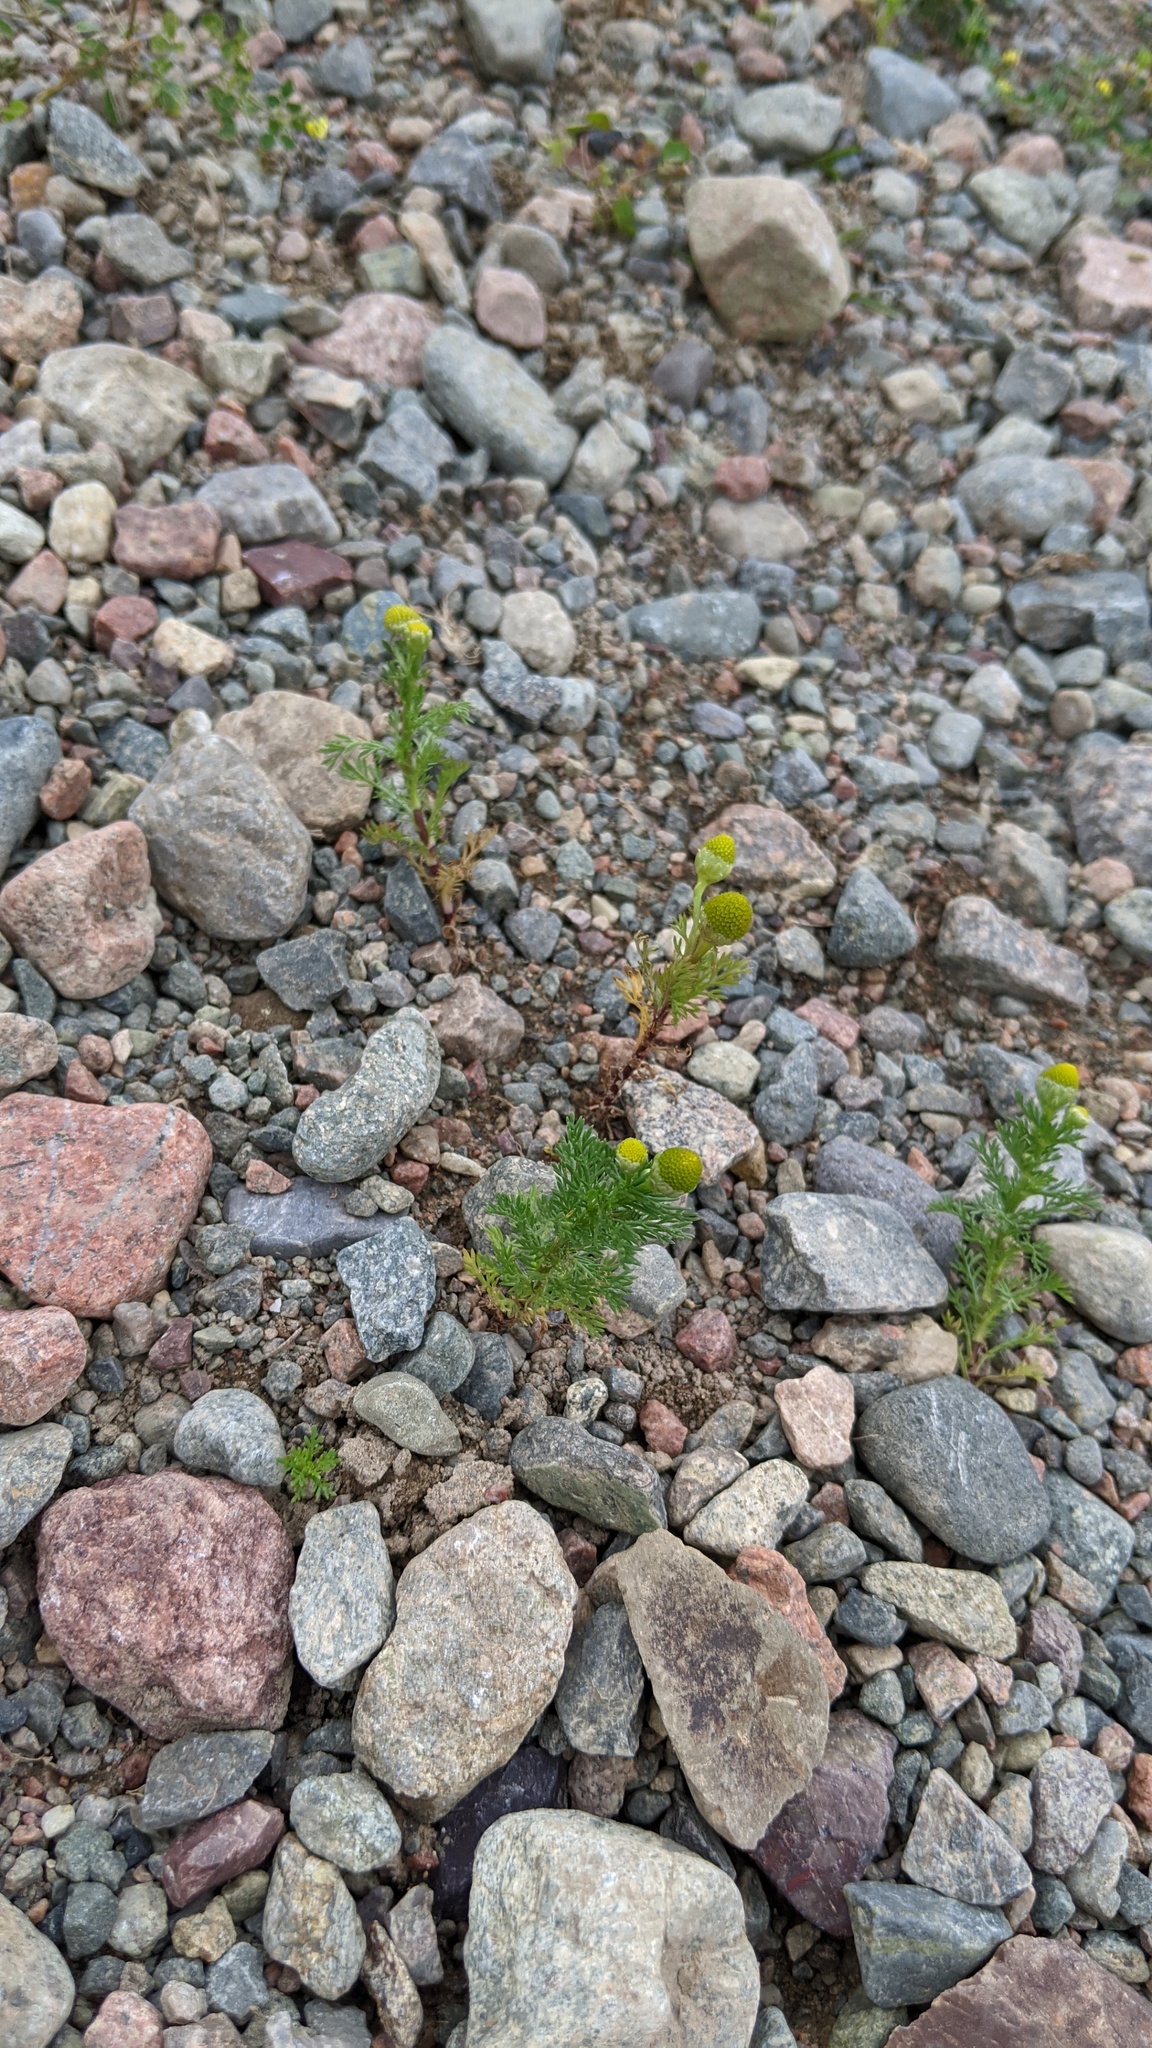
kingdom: Plantae
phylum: Tracheophyta
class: Magnoliopsida
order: Asterales
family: Asteraceae
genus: Matricaria
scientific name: Matricaria discoidea
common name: Disc mayweed
